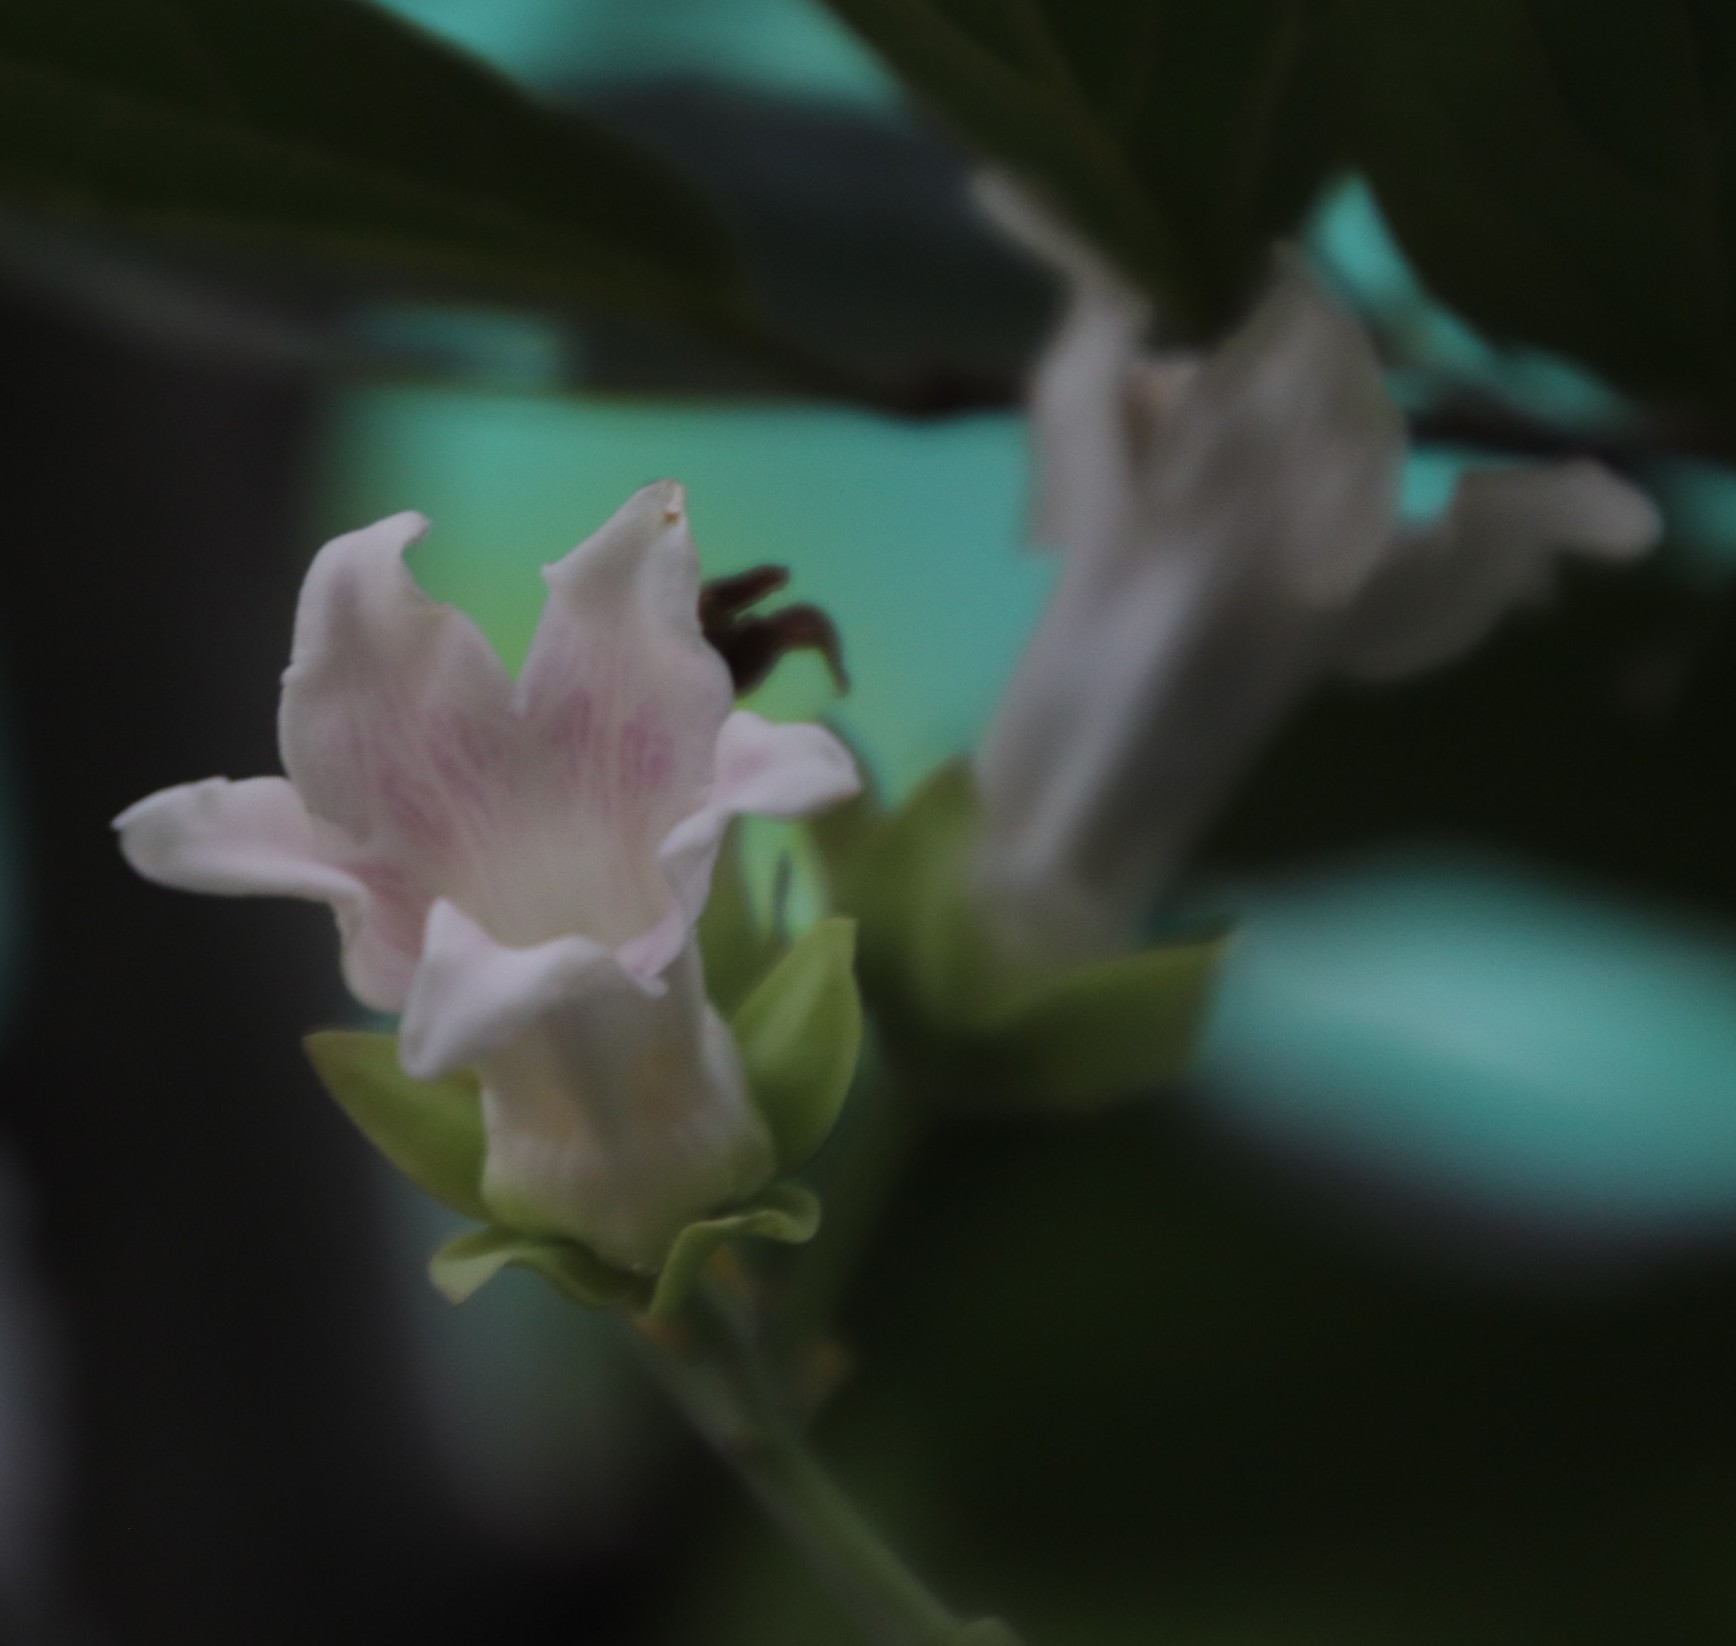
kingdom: Plantae
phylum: Tracheophyta
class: Magnoliopsida
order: Gentianales
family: Apocynaceae
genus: Araujia
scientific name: Araujia sericifera
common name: White bladderflower
